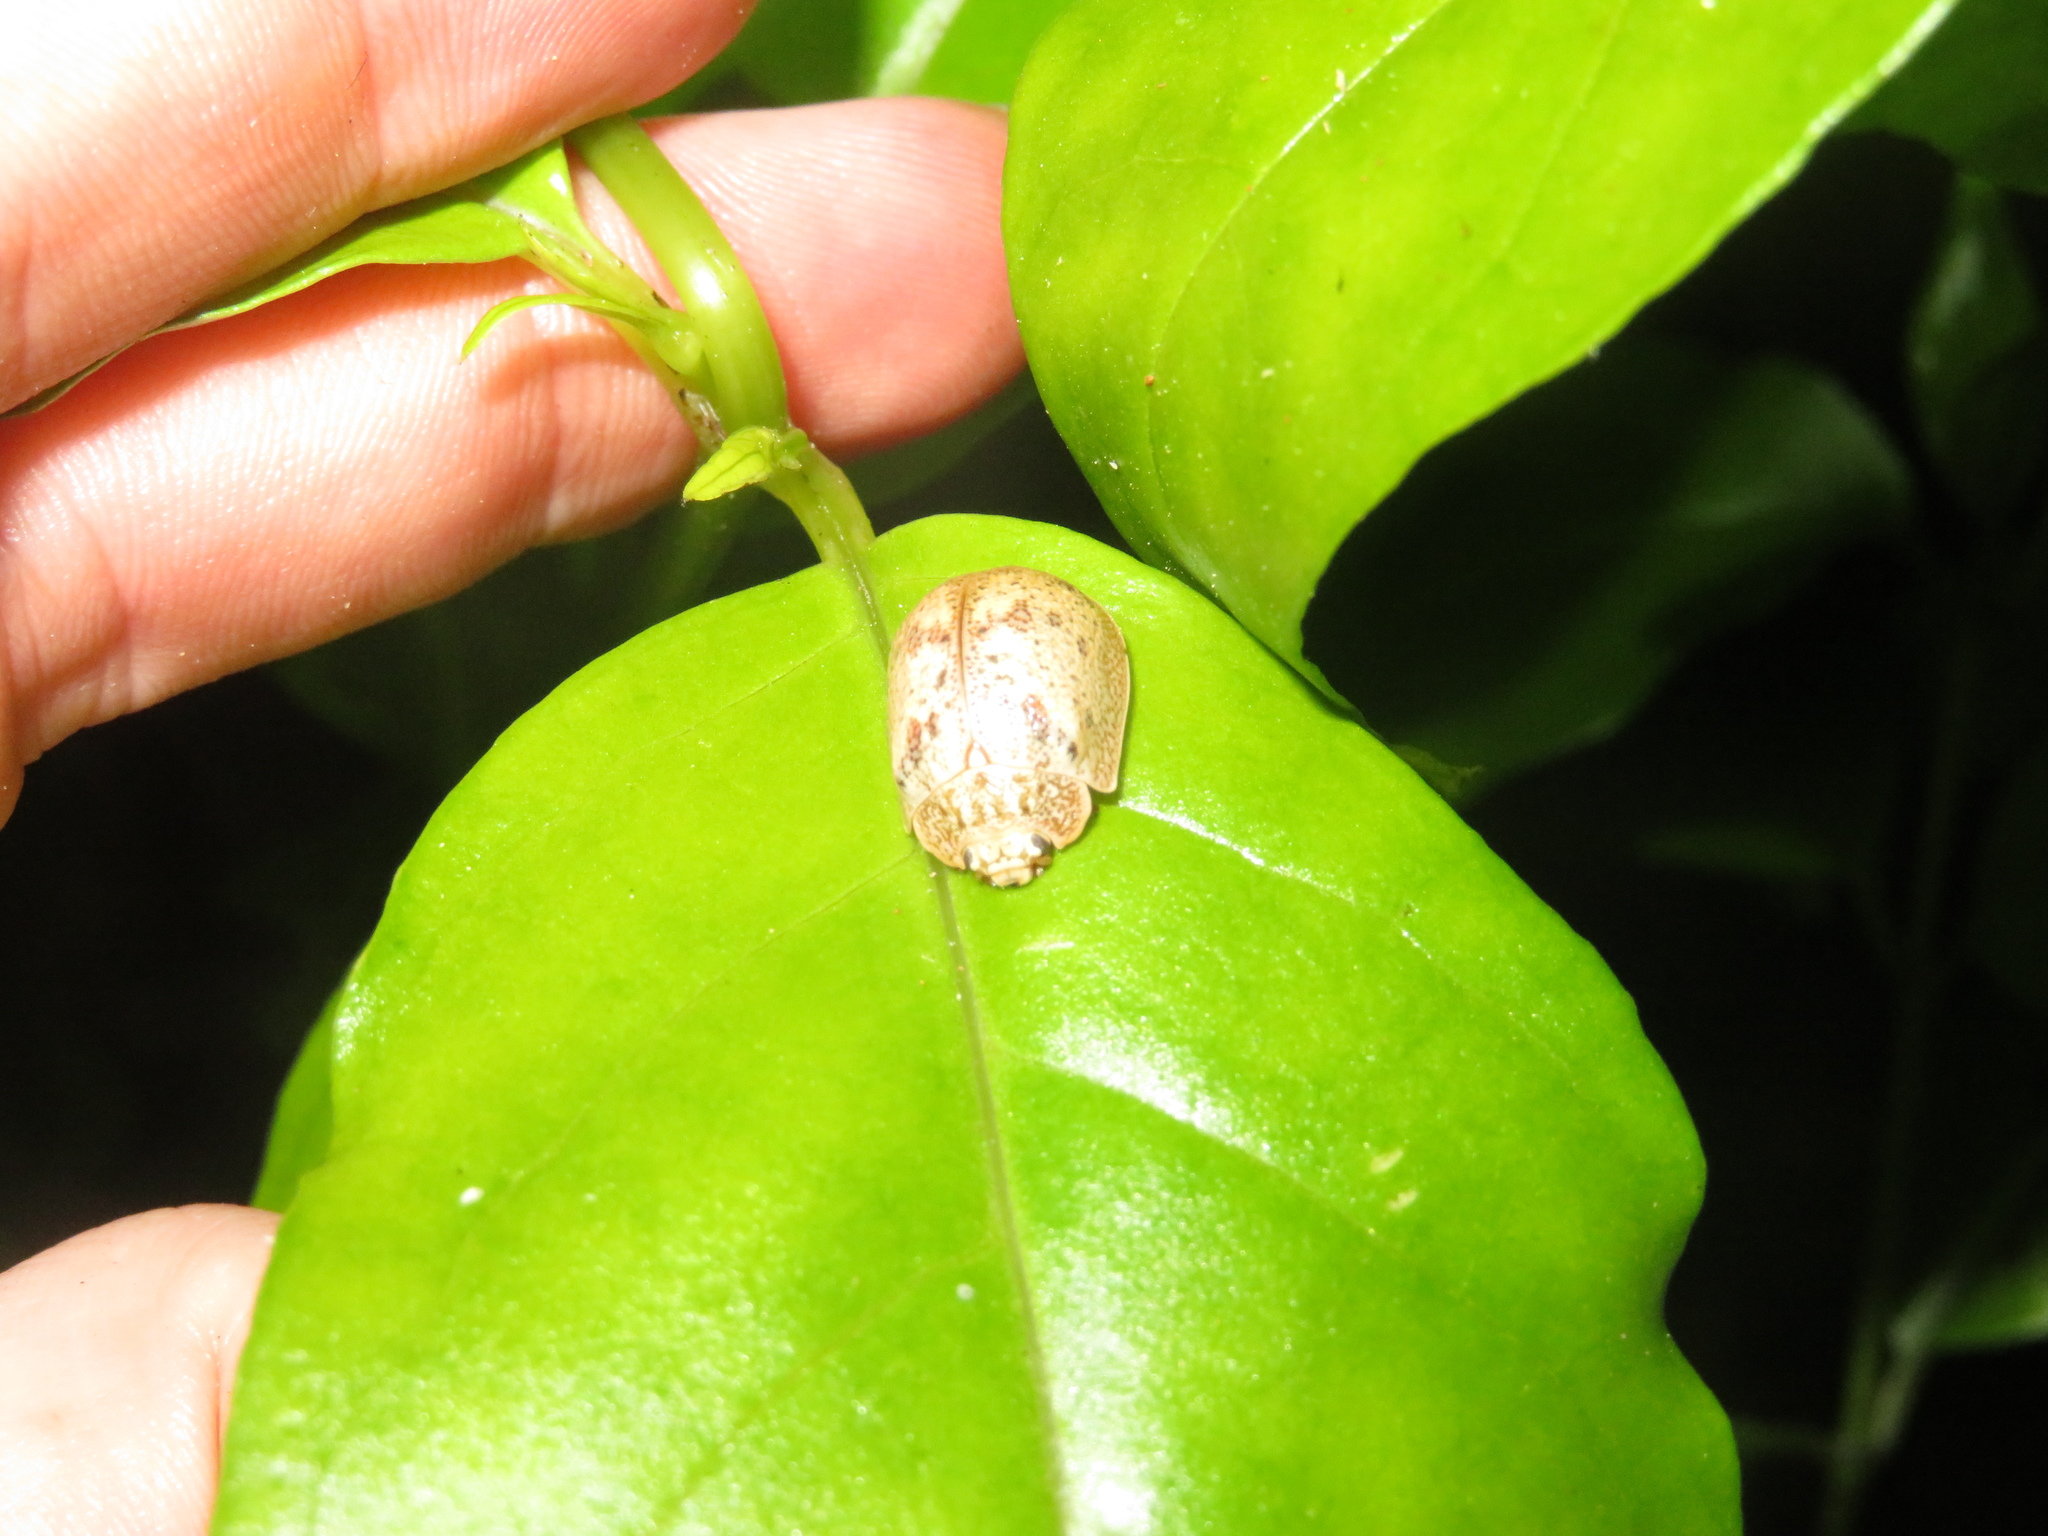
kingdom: Animalia
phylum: Arthropoda
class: Insecta
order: Coleoptera
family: Chrysomelidae
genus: Paropsis
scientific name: Paropsis charybdis
